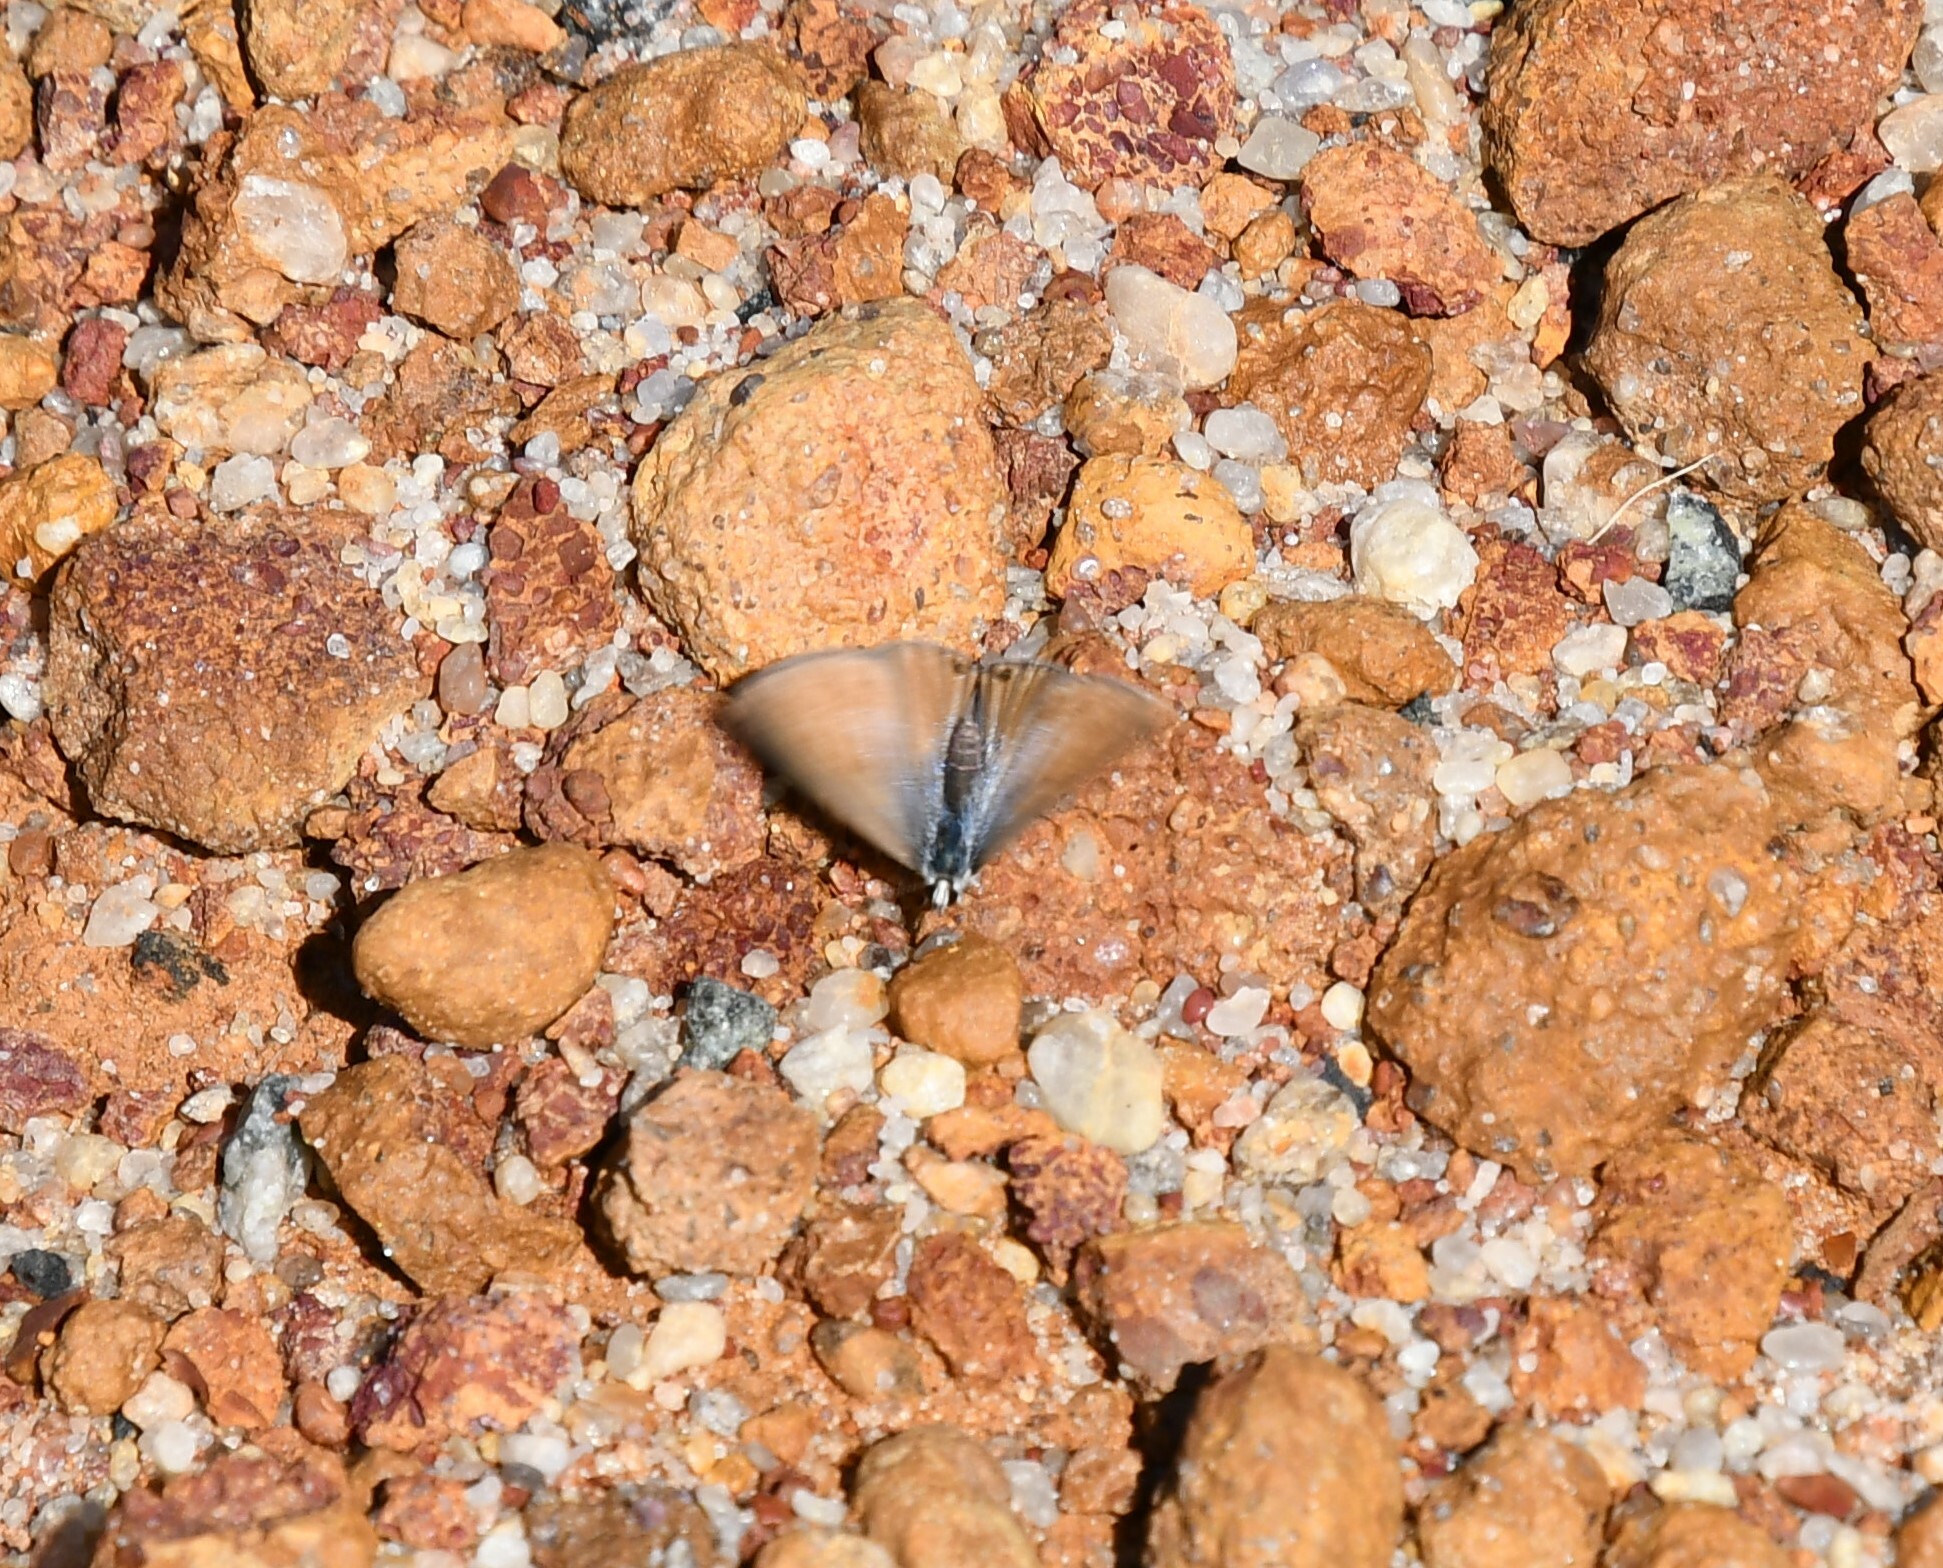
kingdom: Animalia
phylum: Arthropoda
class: Insecta
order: Lepidoptera
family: Lycaenidae
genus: Nacaduba
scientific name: Nacaduba biocellata
